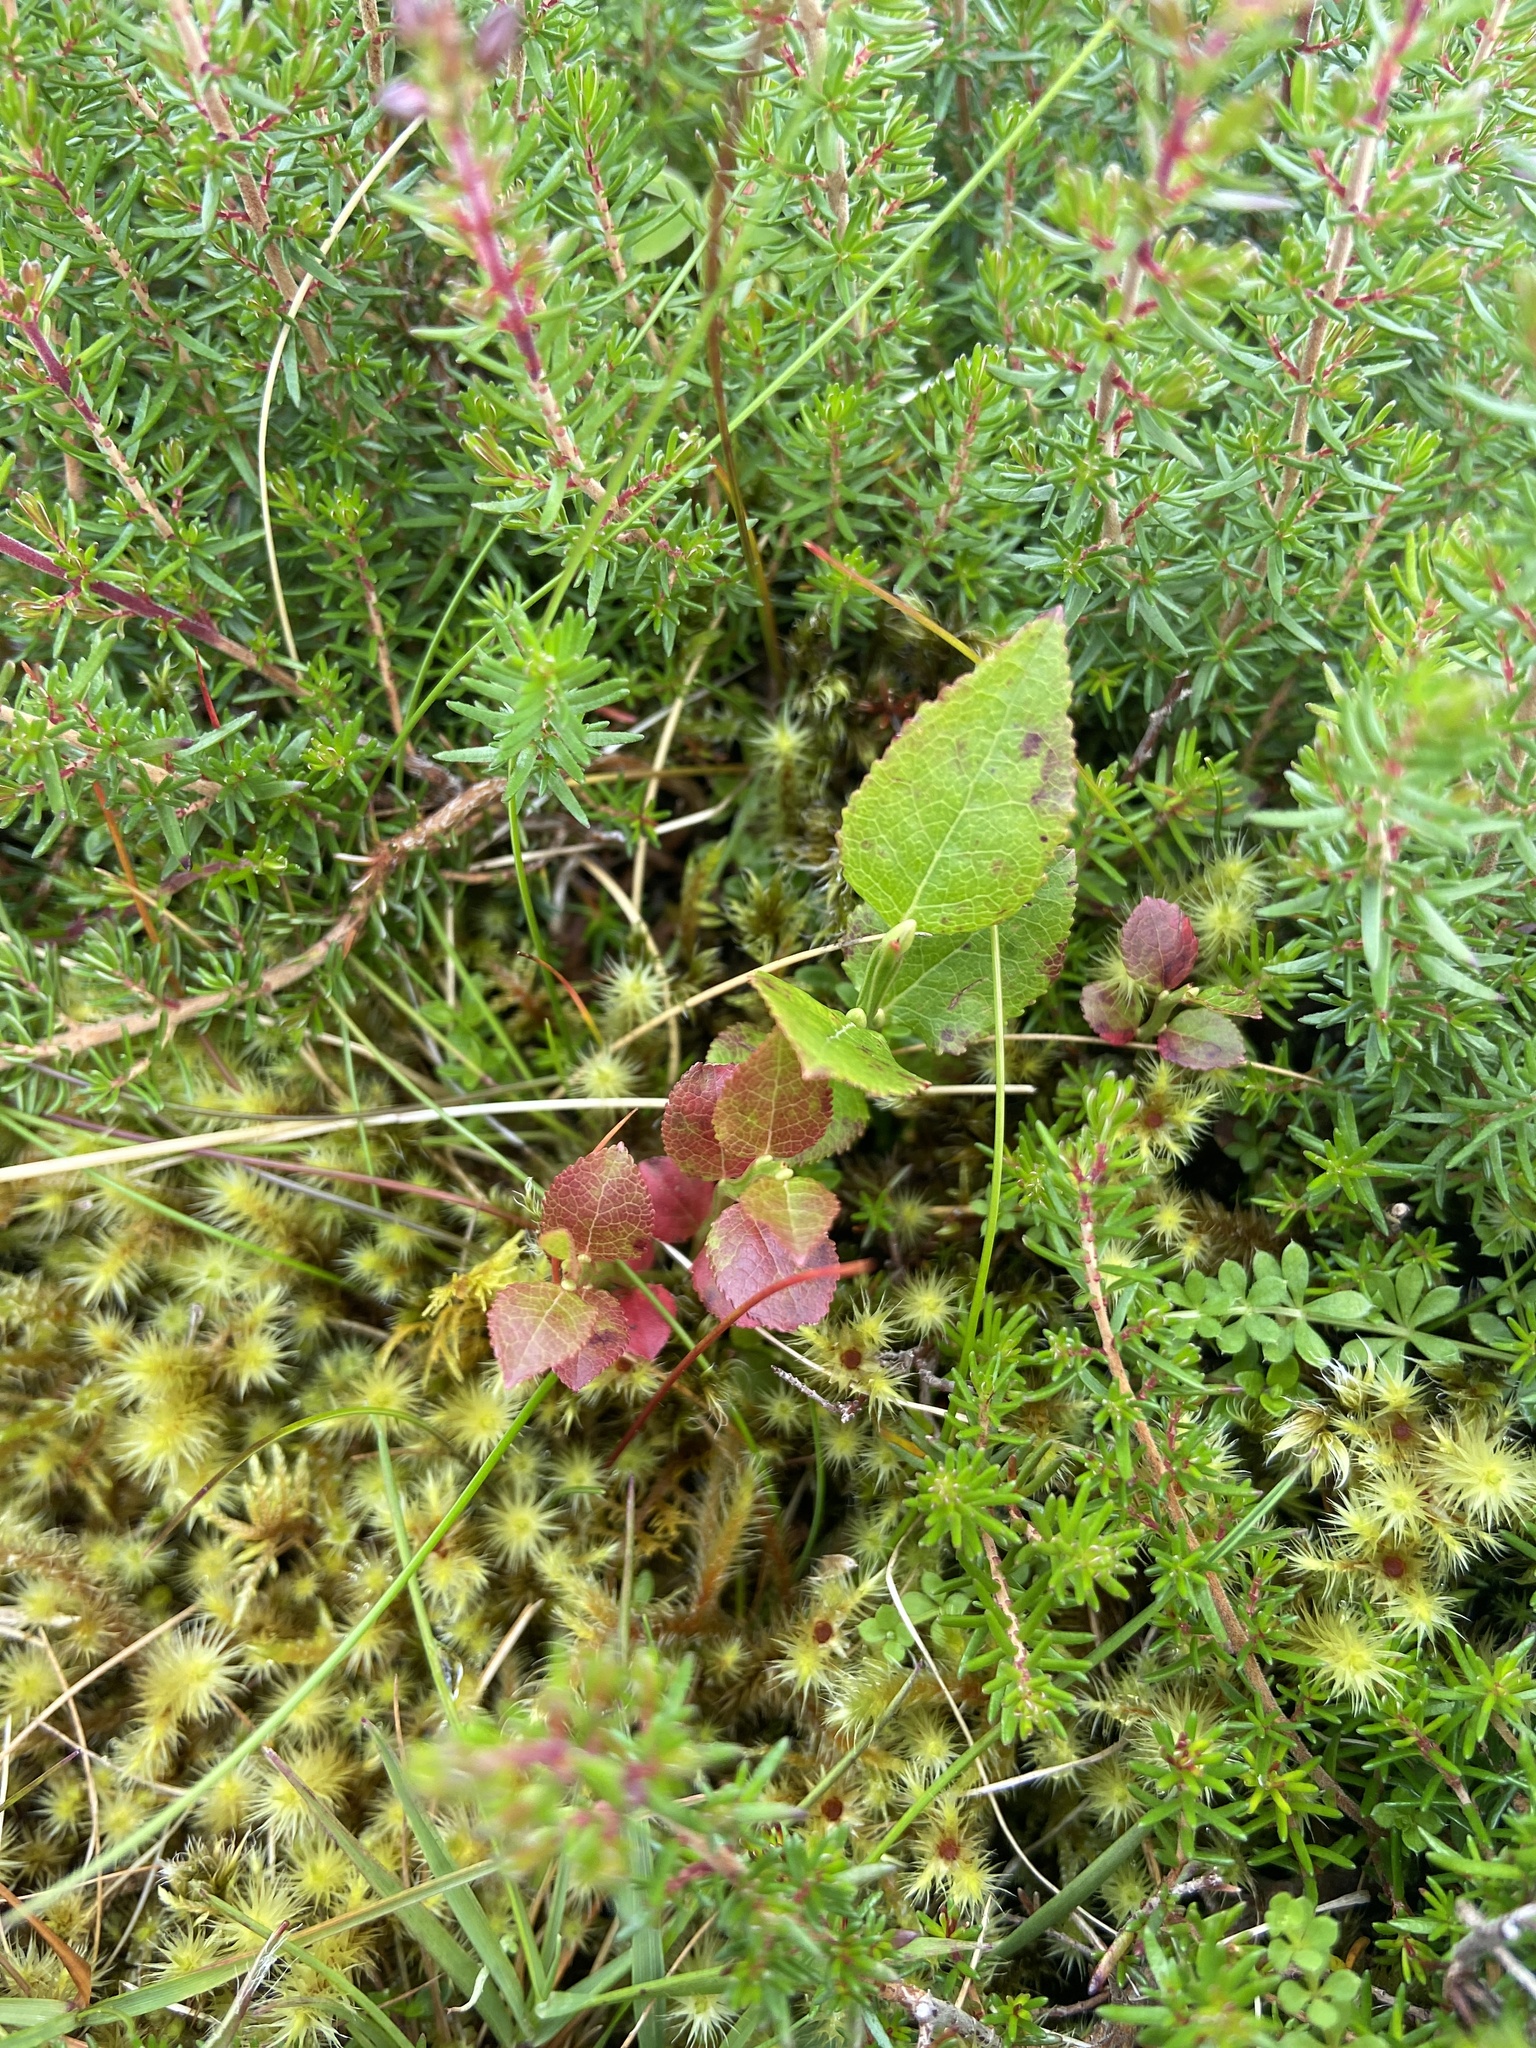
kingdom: Plantae
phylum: Tracheophyta
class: Magnoliopsida
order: Ericales
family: Ericaceae
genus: Vaccinium
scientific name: Vaccinium myrtillus
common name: Bilberry
